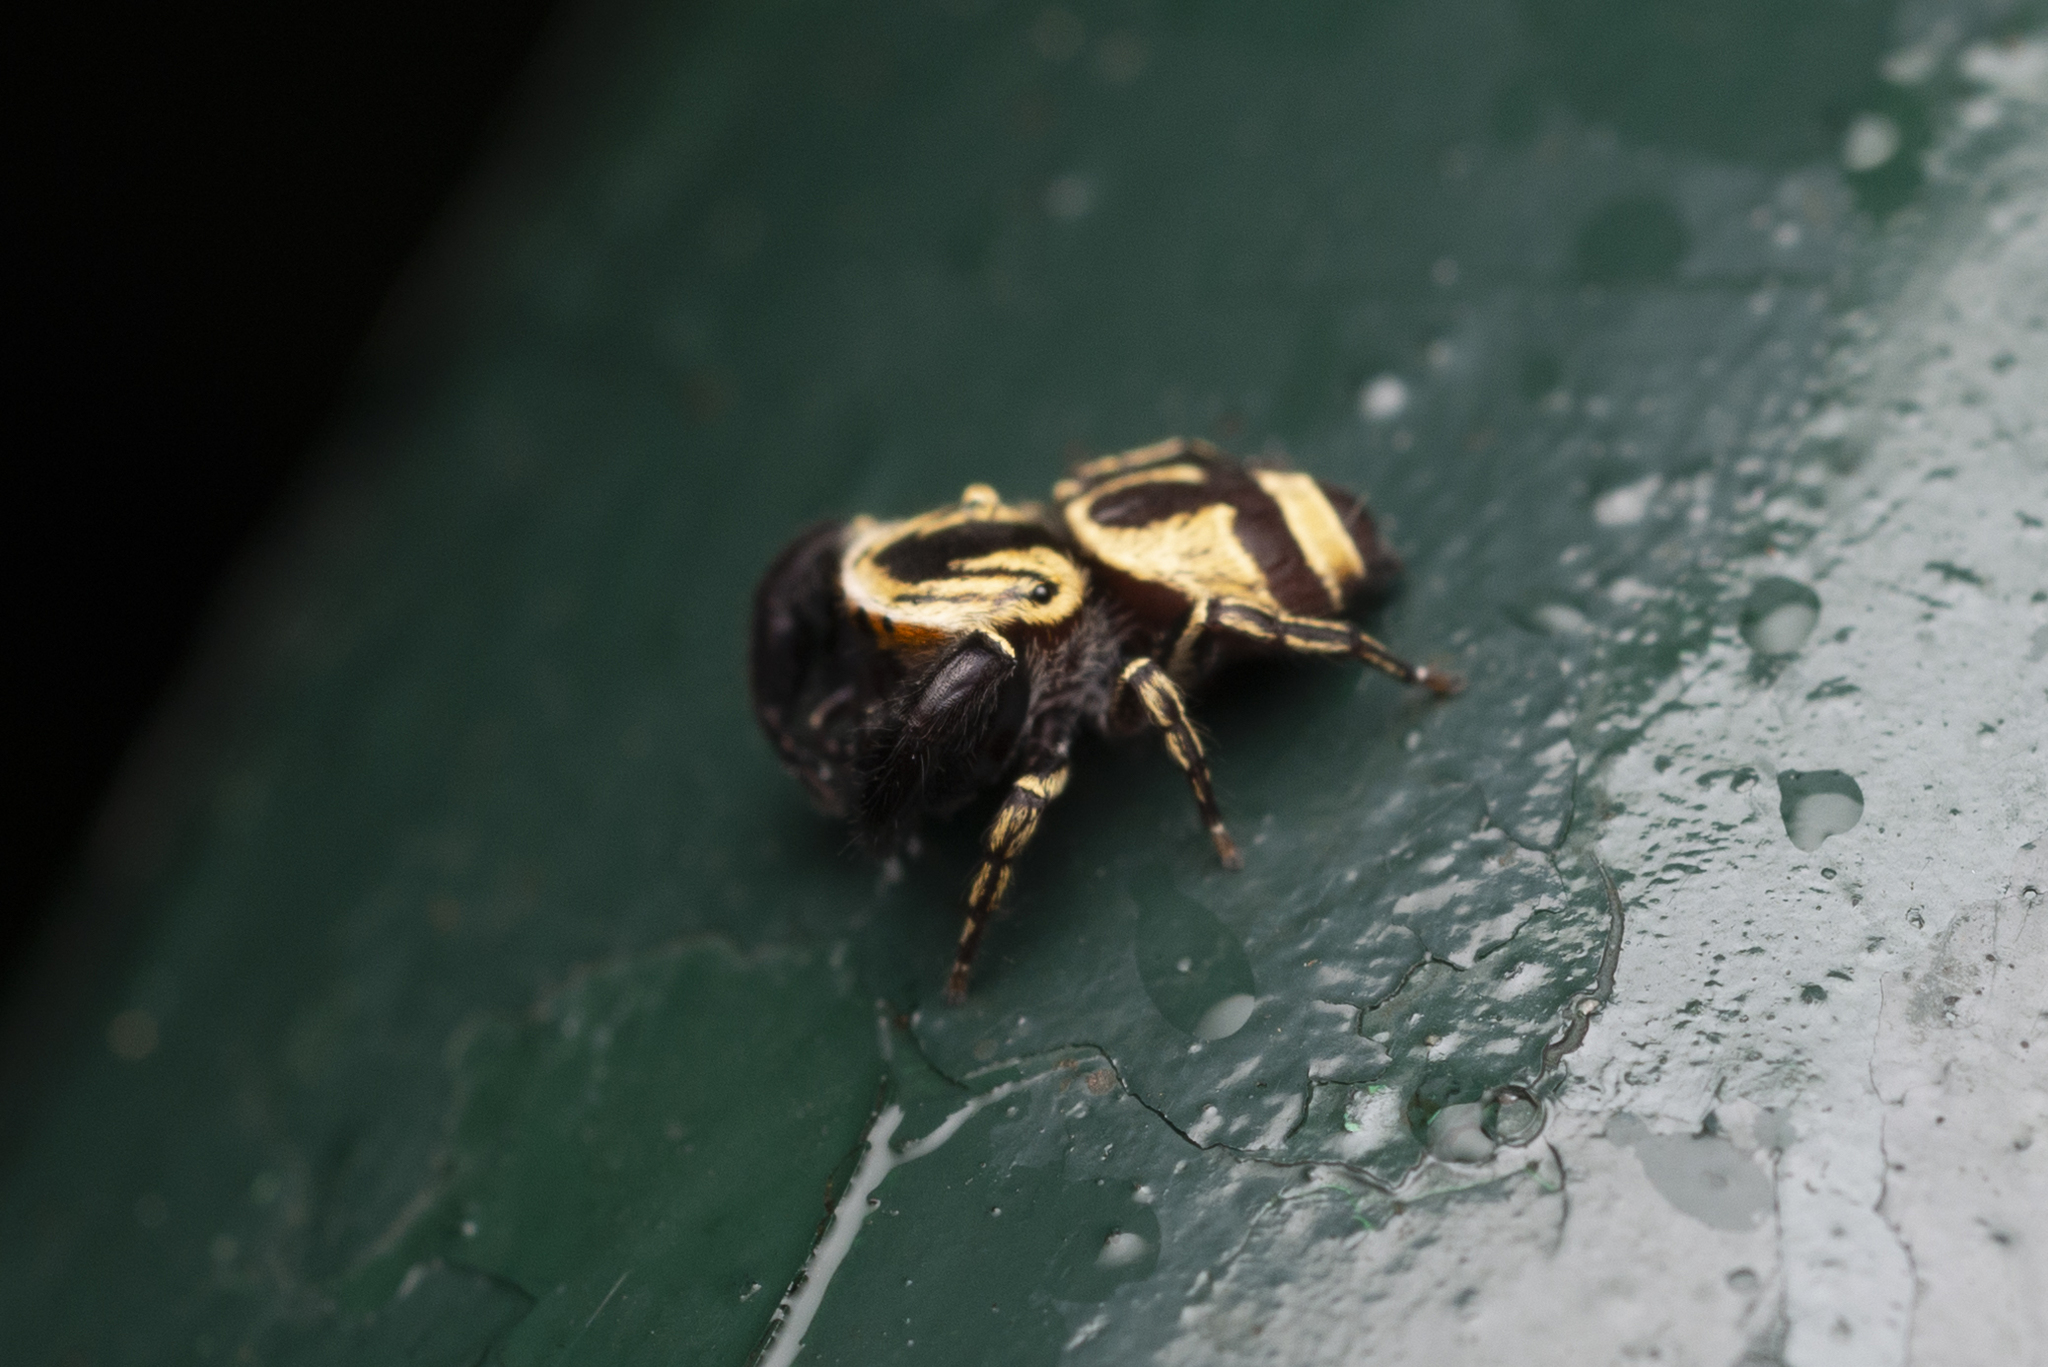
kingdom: Animalia
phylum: Arthropoda
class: Arachnida
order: Araneae
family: Salticidae
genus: Rhene
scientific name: Rhene flavicomans
